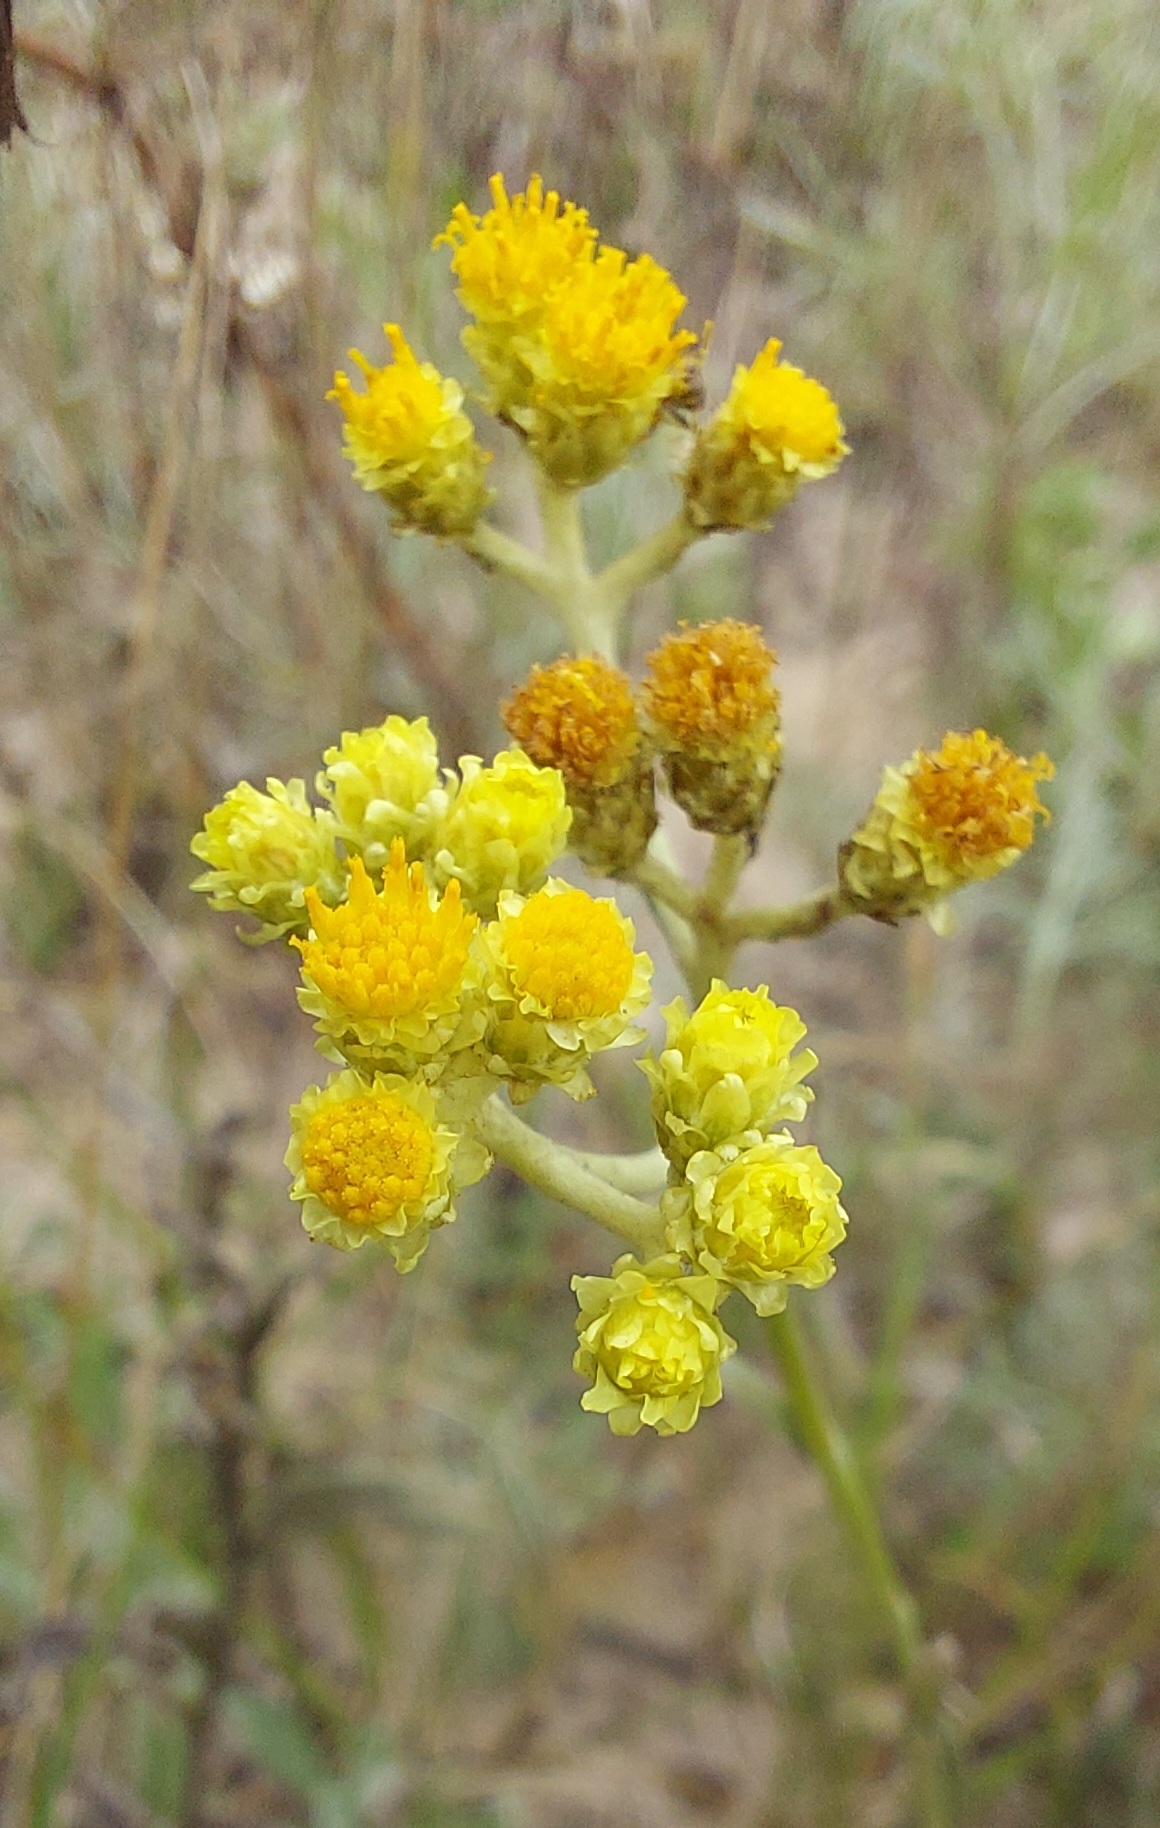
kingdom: Plantae
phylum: Tracheophyta
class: Magnoliopsida
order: Asterales
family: Asteraceae
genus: Helichrysum
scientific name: Helichrysum arenarium
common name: Strawflower
